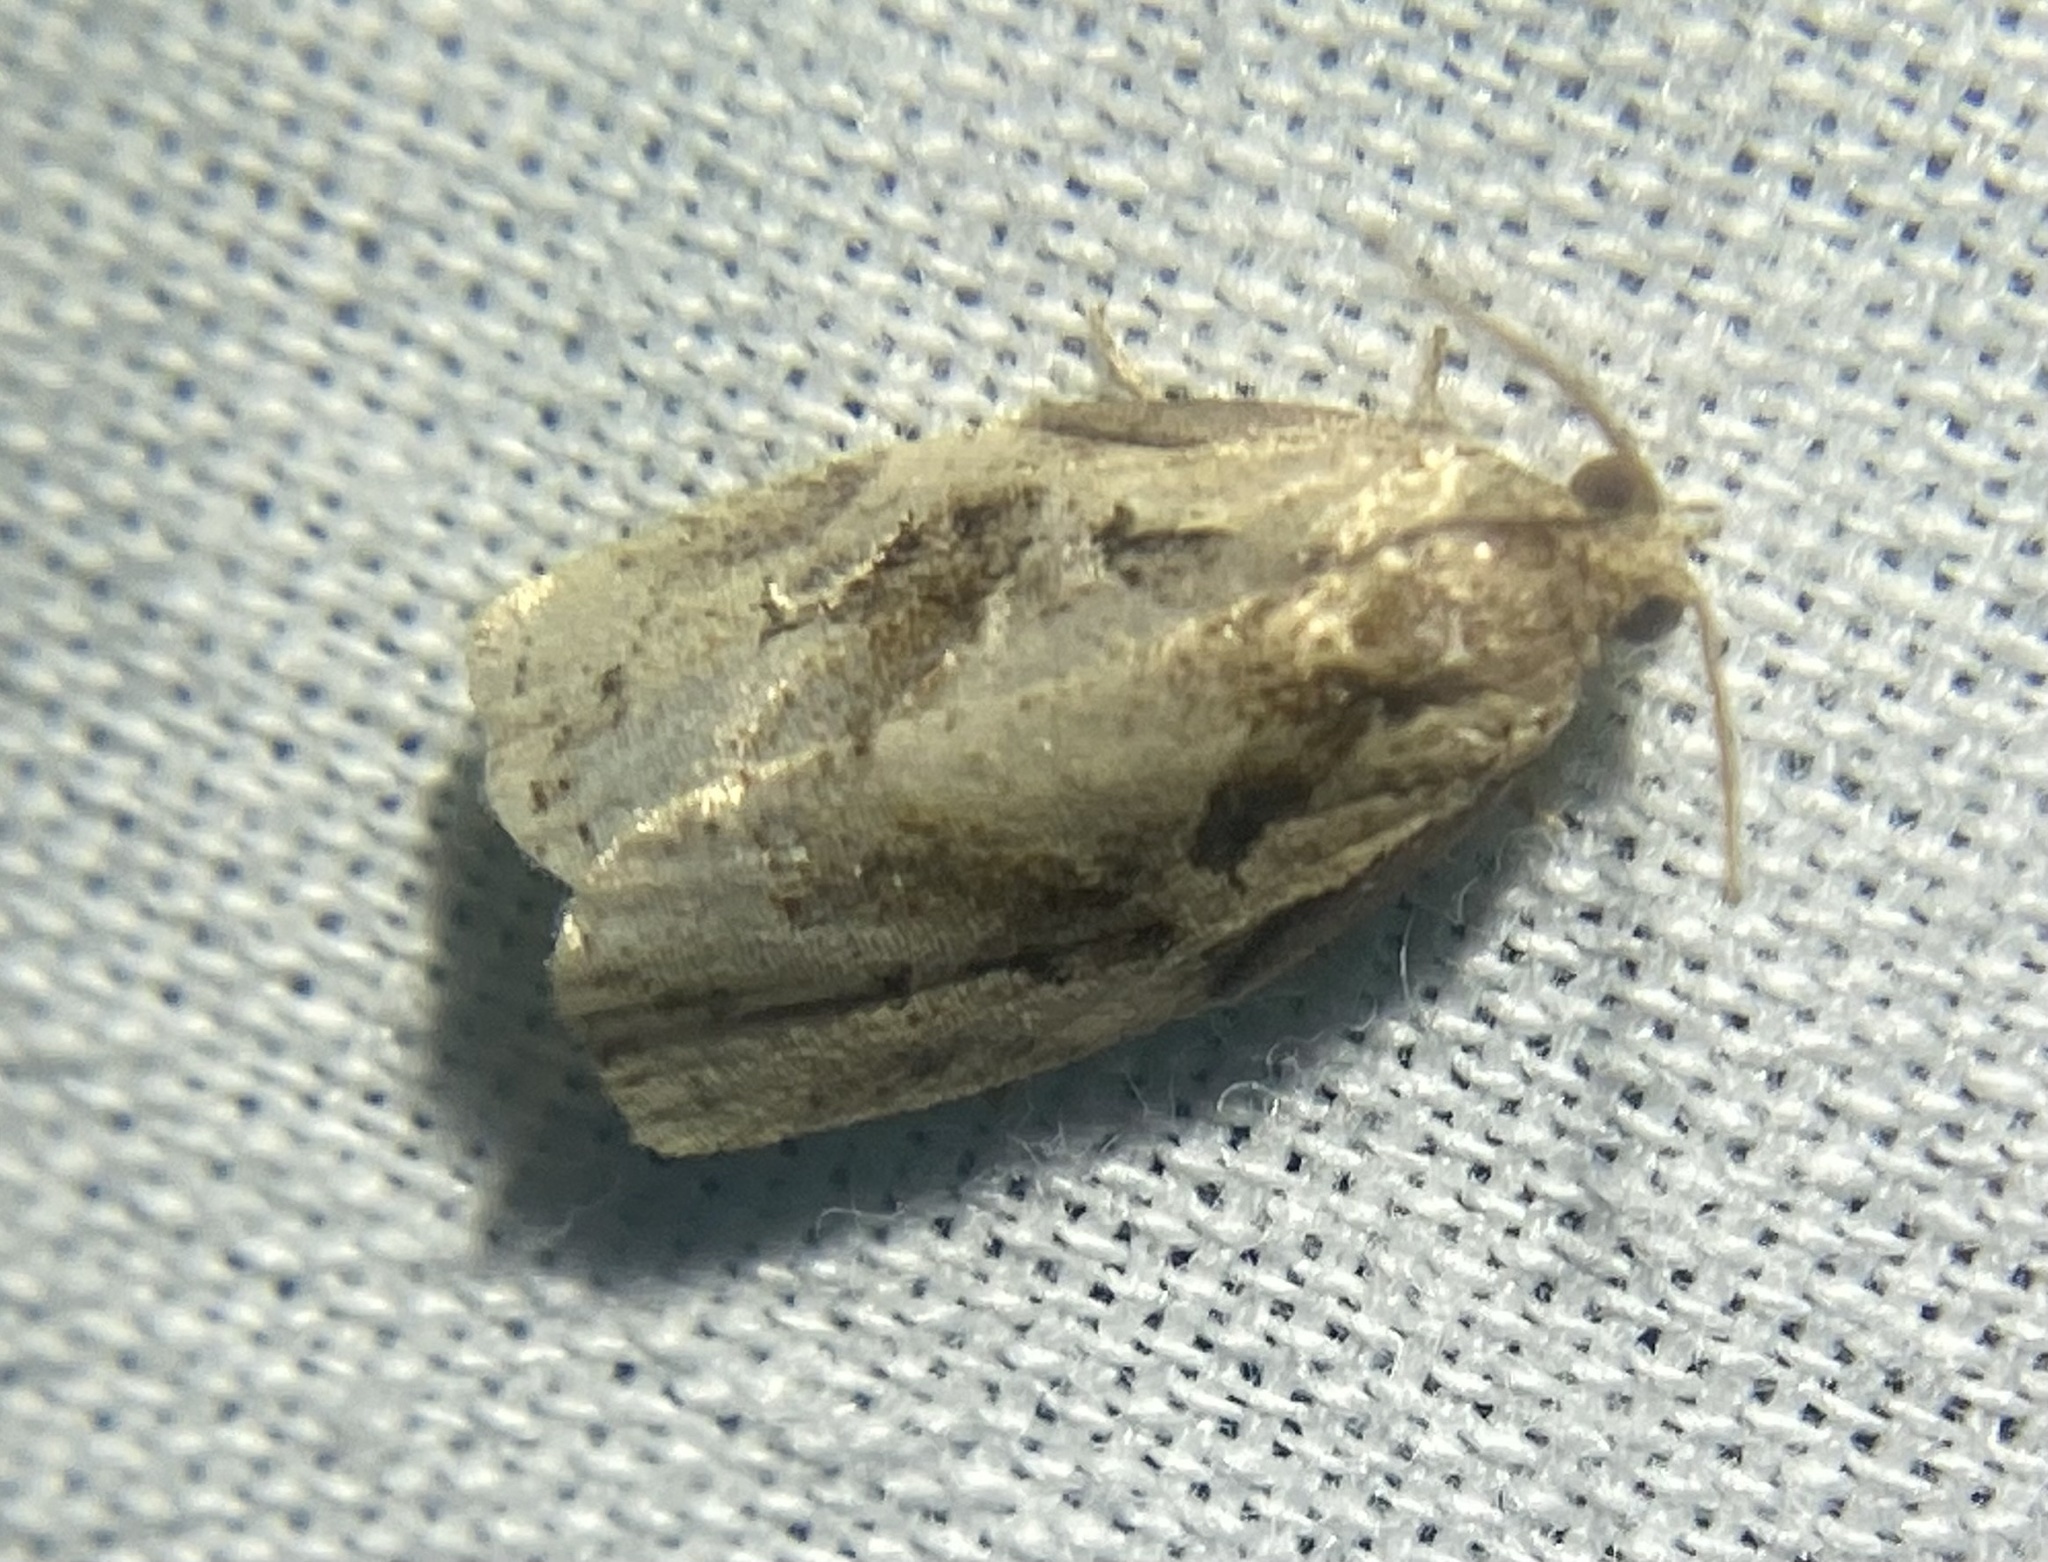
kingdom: Animalia
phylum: Arthropoda
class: Insecta
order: Lepidoptera
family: Tortricidae
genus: Archips
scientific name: Archips grisea
